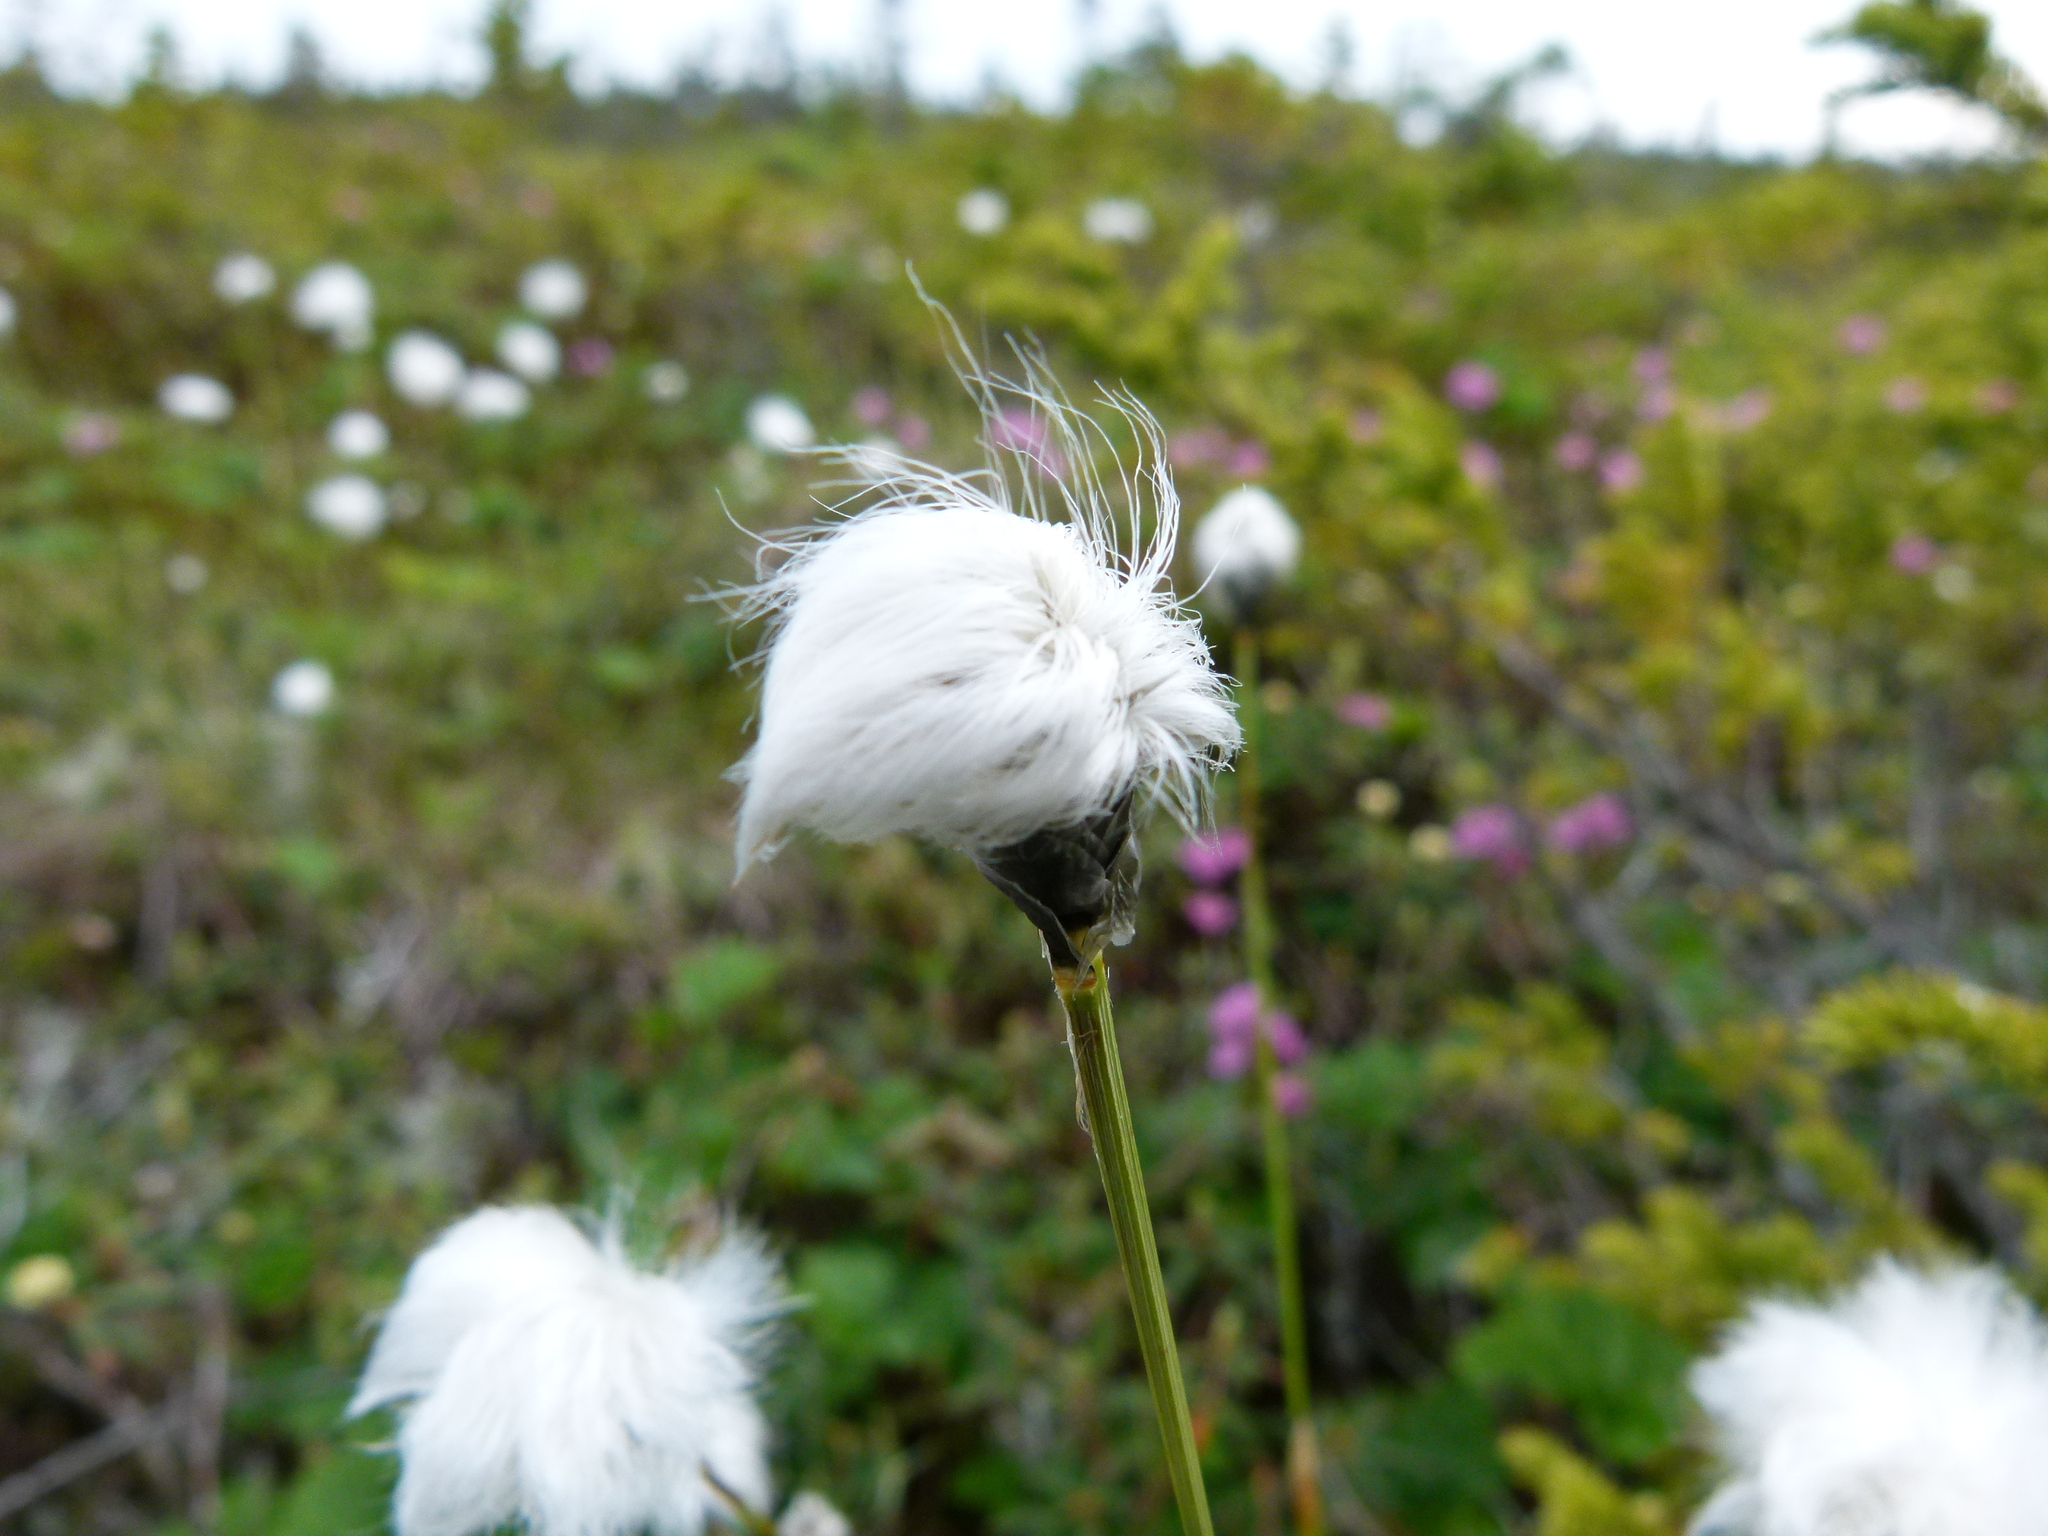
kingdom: Plantae
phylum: Tracheophyta
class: Liliopsida
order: Poales
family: Cyperaceae
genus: Eriophorum
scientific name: Eriophorum vaginatum
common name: Hare's-tail cottongrass
